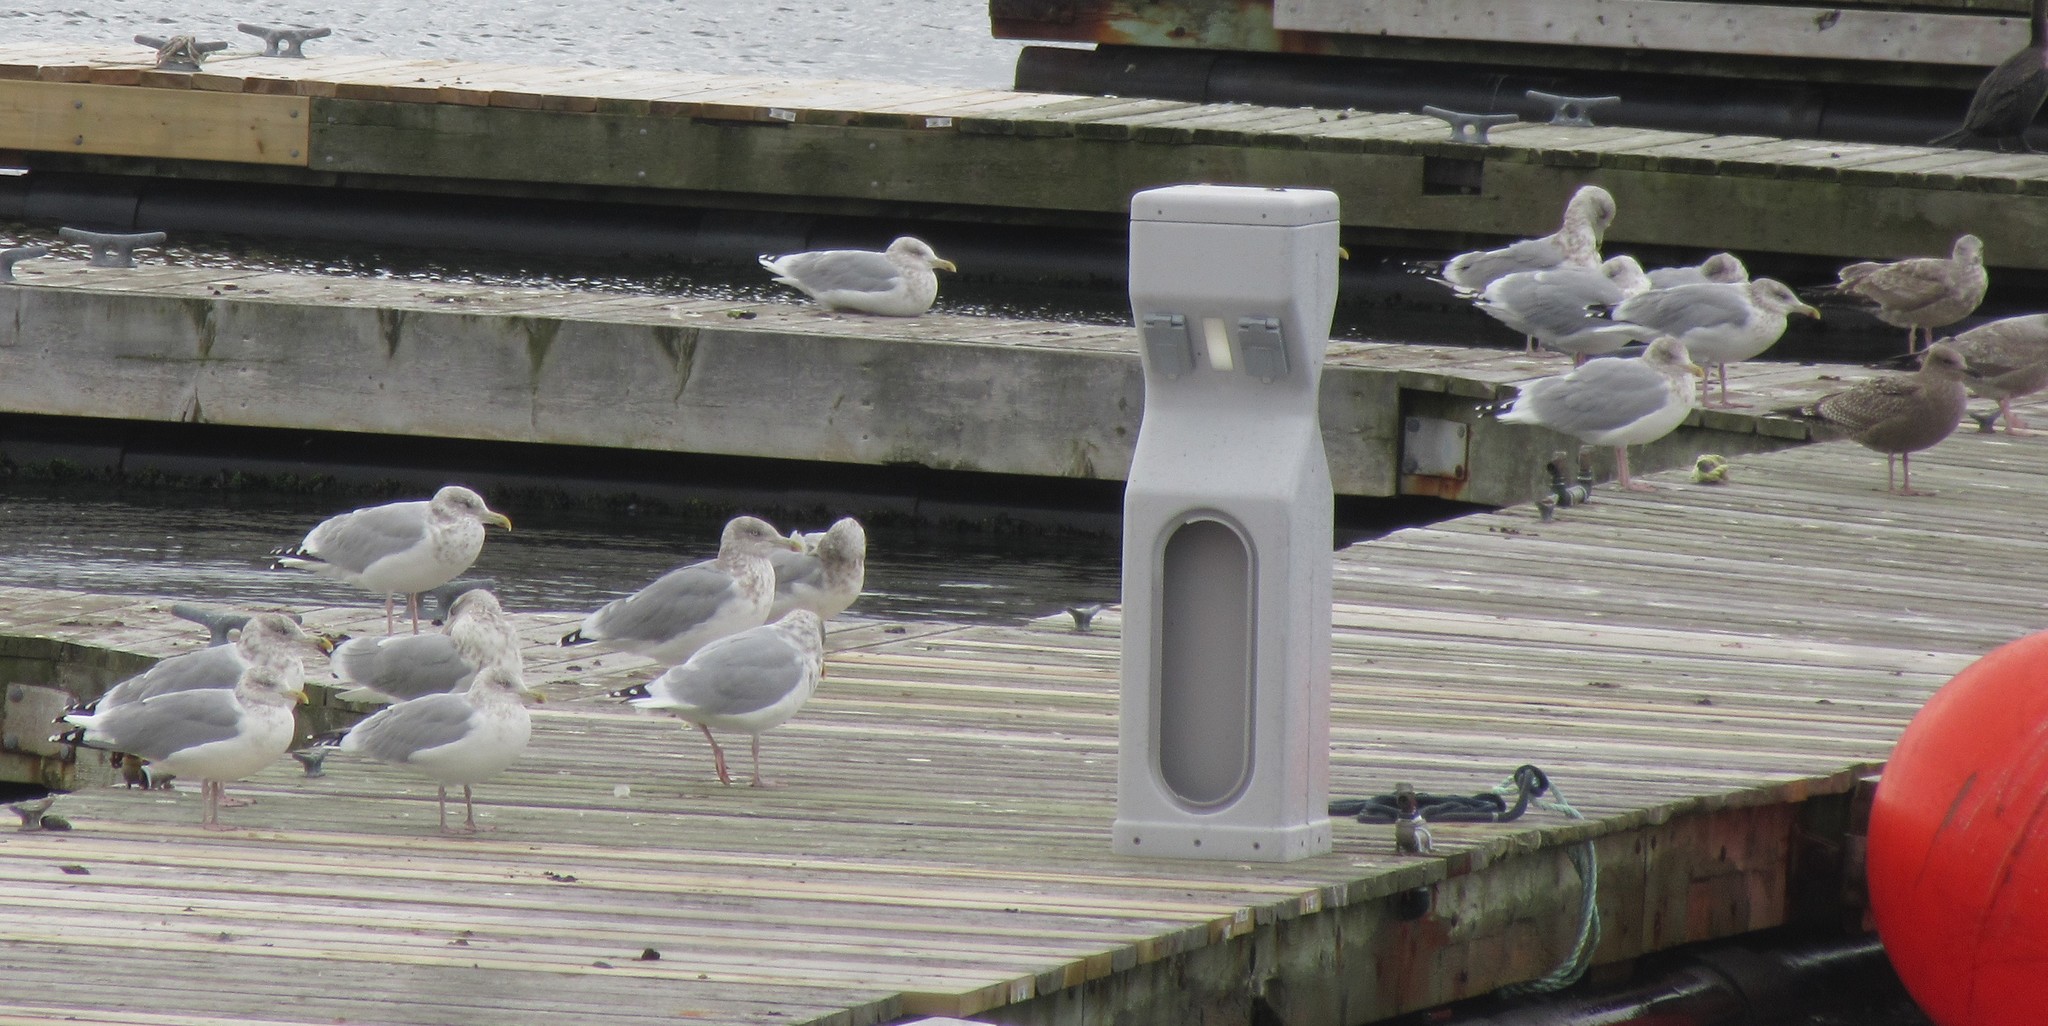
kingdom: Animalia
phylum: Chordata
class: Aves
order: Charadriiformes
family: Laridae
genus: Larus
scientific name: Larus argentatus
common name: Herring gull
